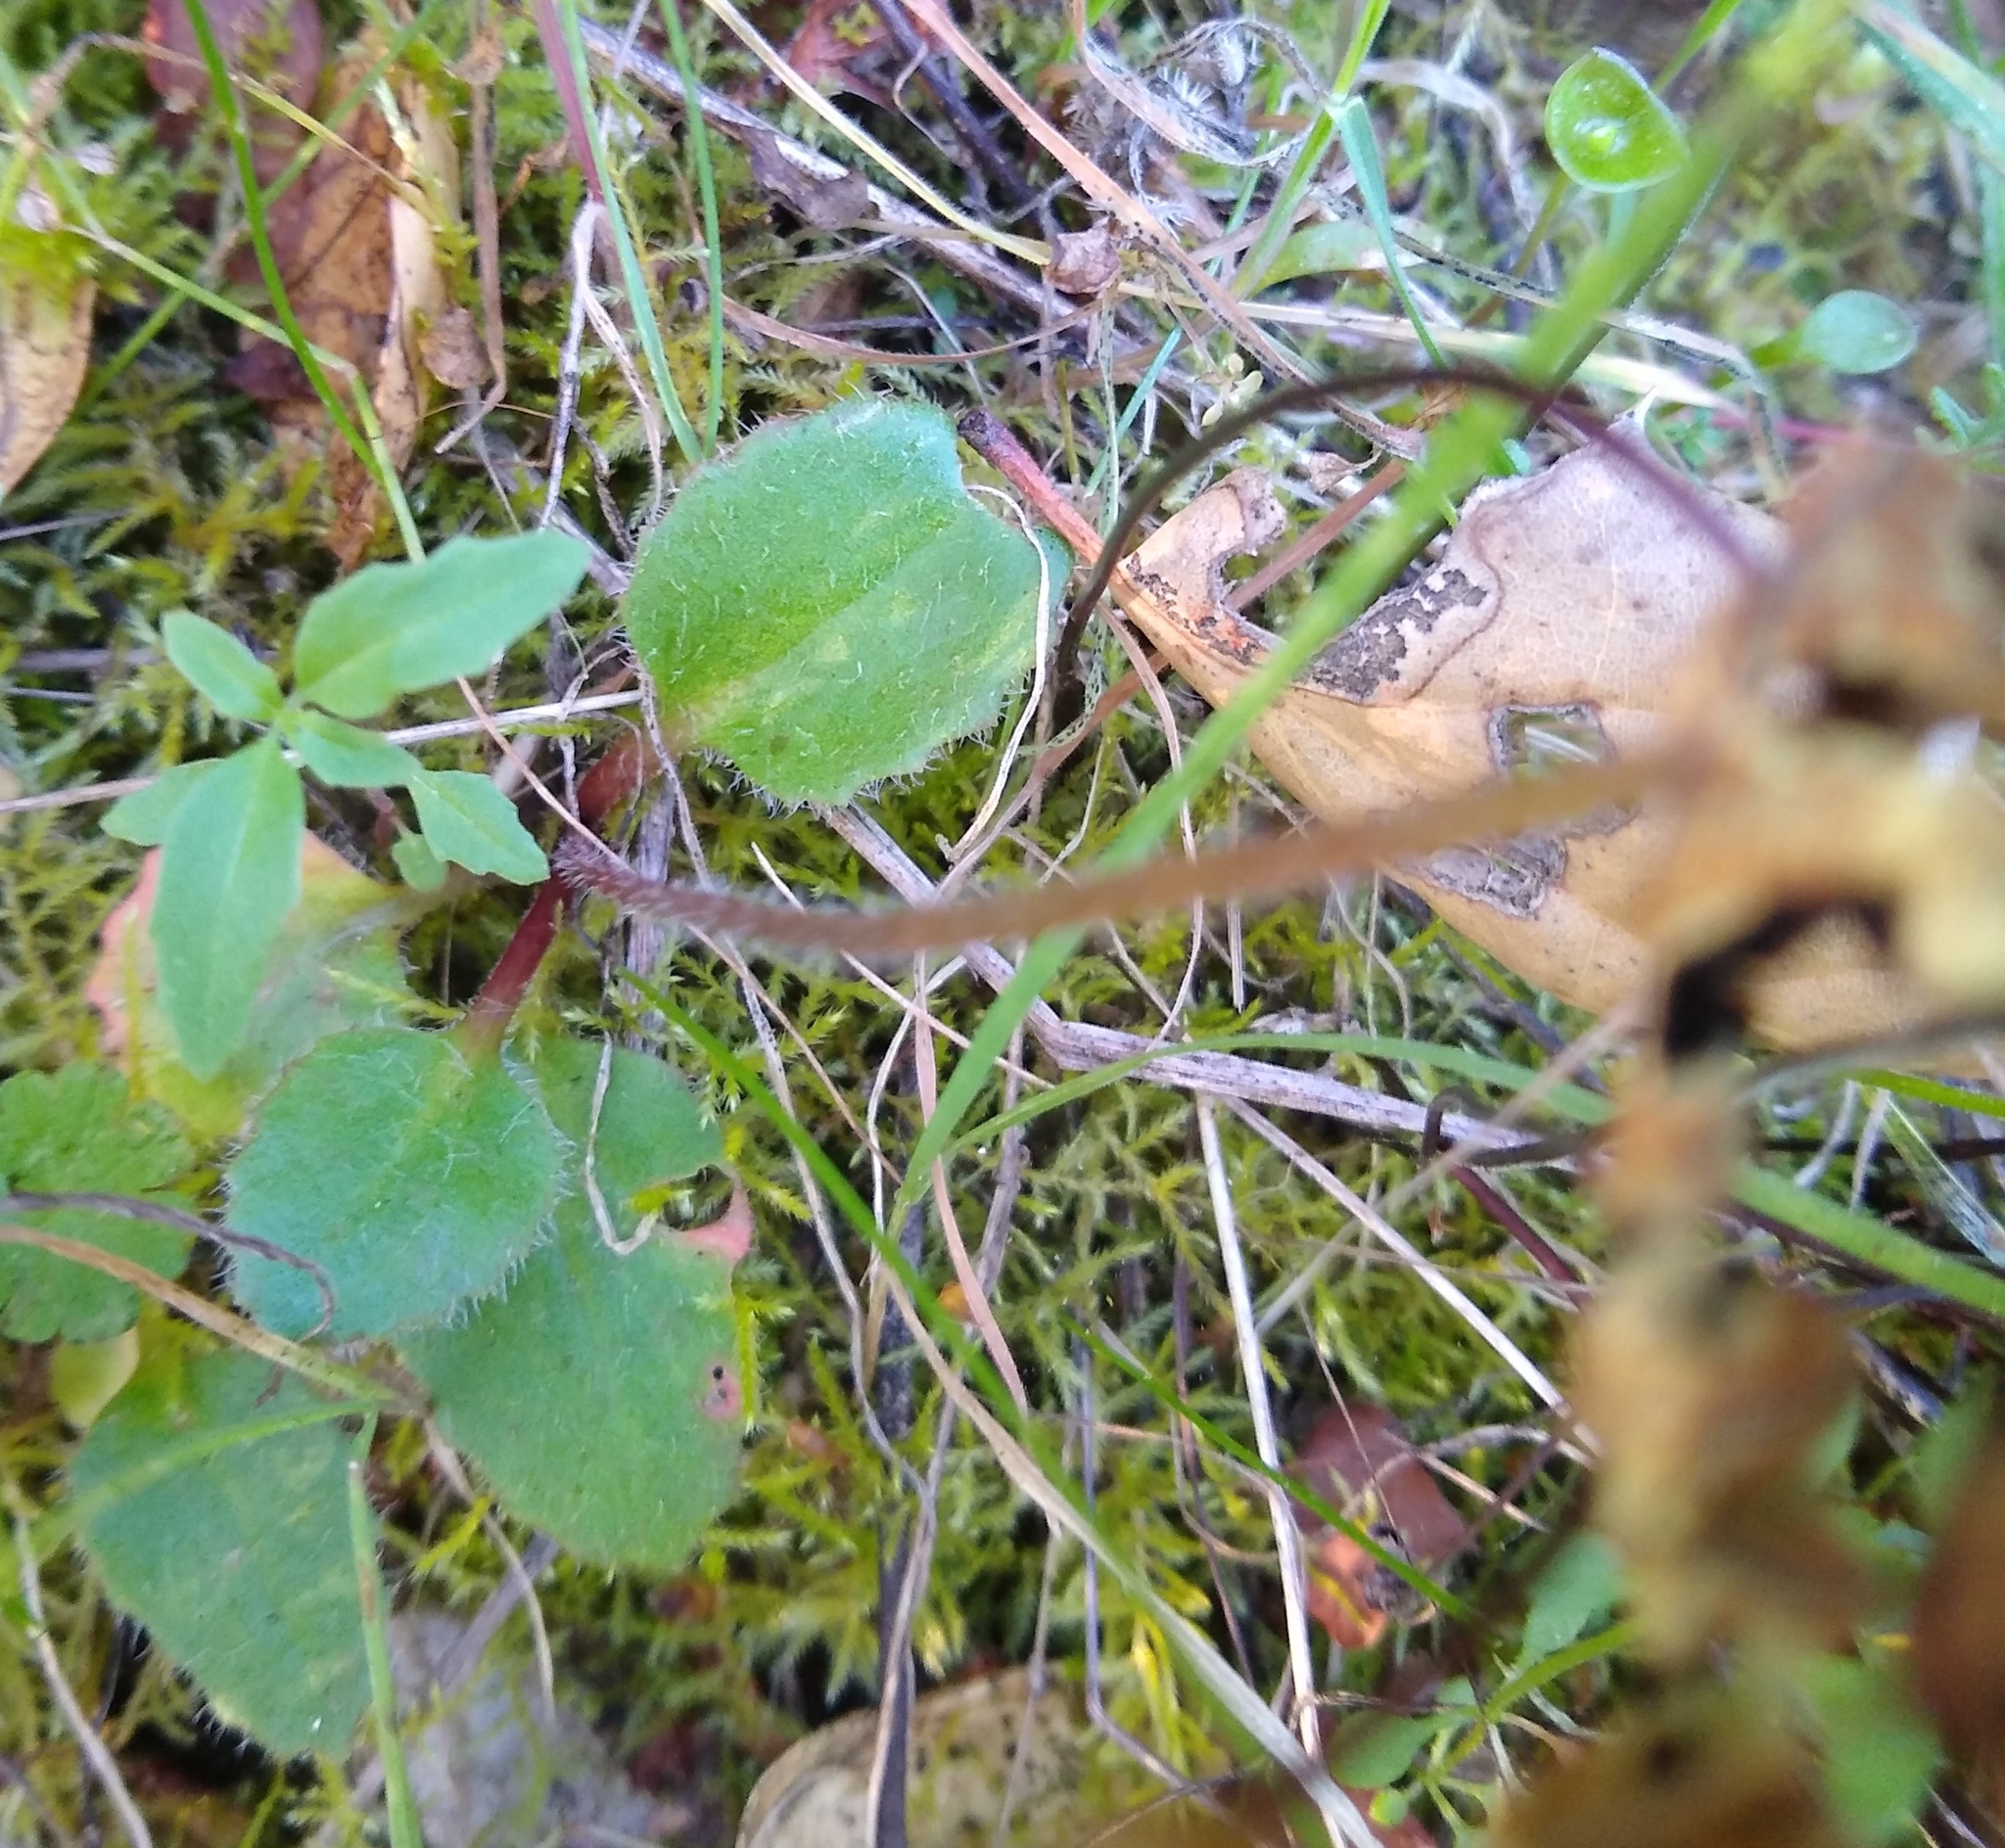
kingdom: Plantae
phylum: Tracheophyta
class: Magnoliopsida
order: Saxifragales
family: Saxifragaceae
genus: Micranthes
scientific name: Micranthes californica
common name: California saxifrage
